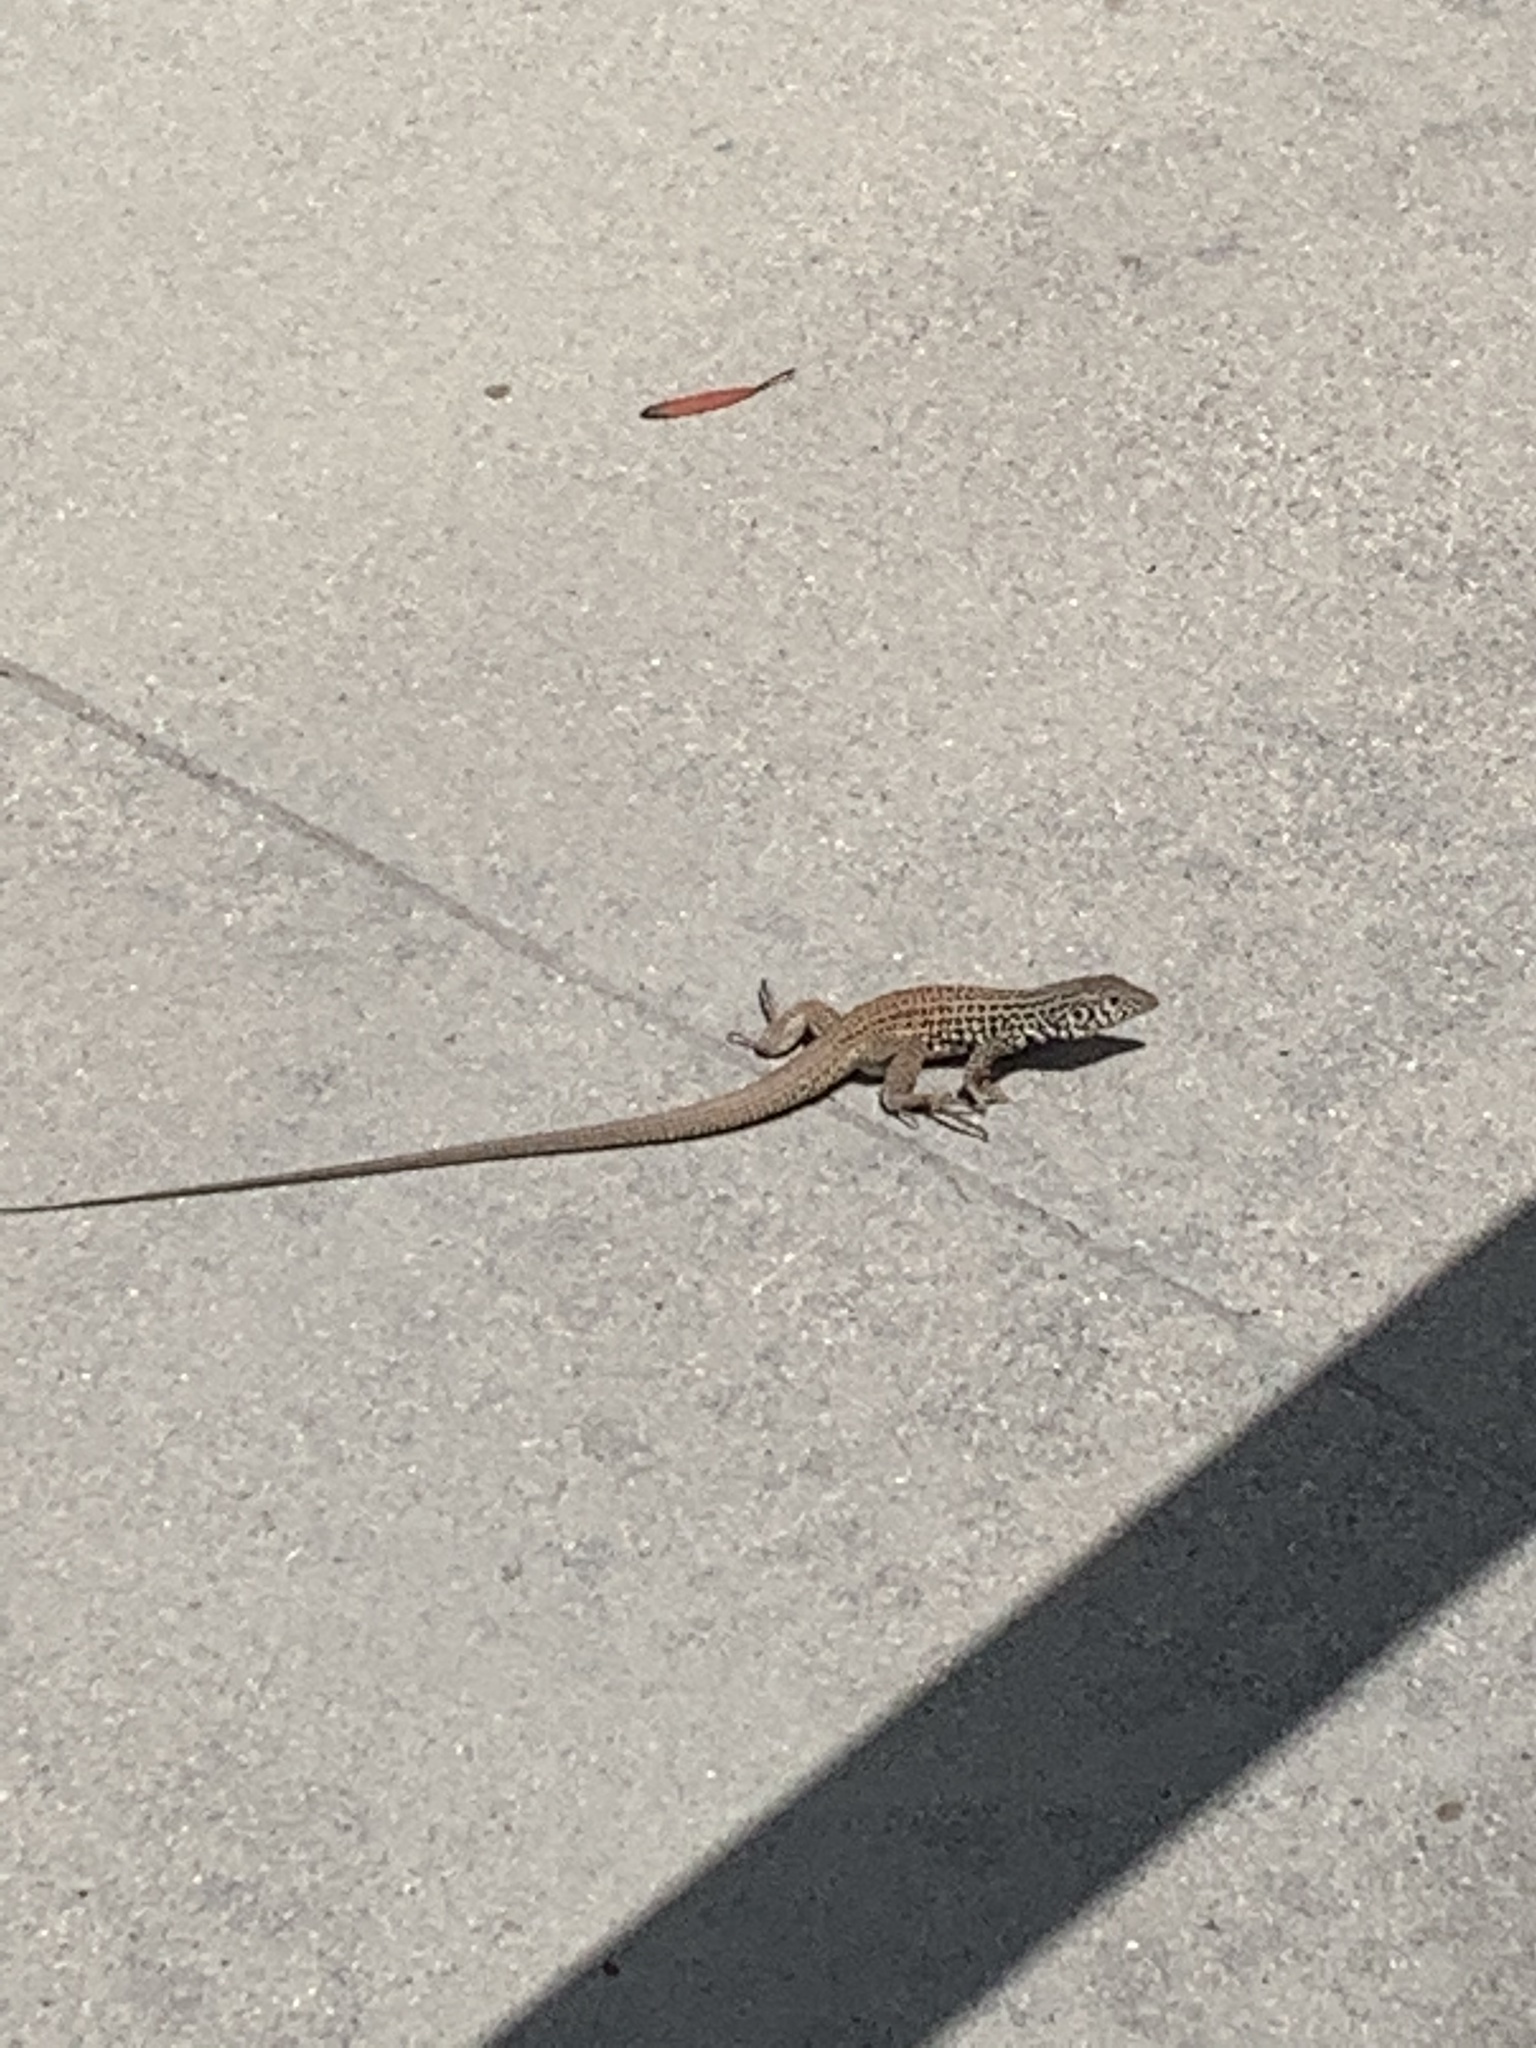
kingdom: Animalia
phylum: Chordata
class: Squamata
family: Teiidae
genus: Aspidoscelis
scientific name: Aspidoscelis tigris
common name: Tiger whiptail
